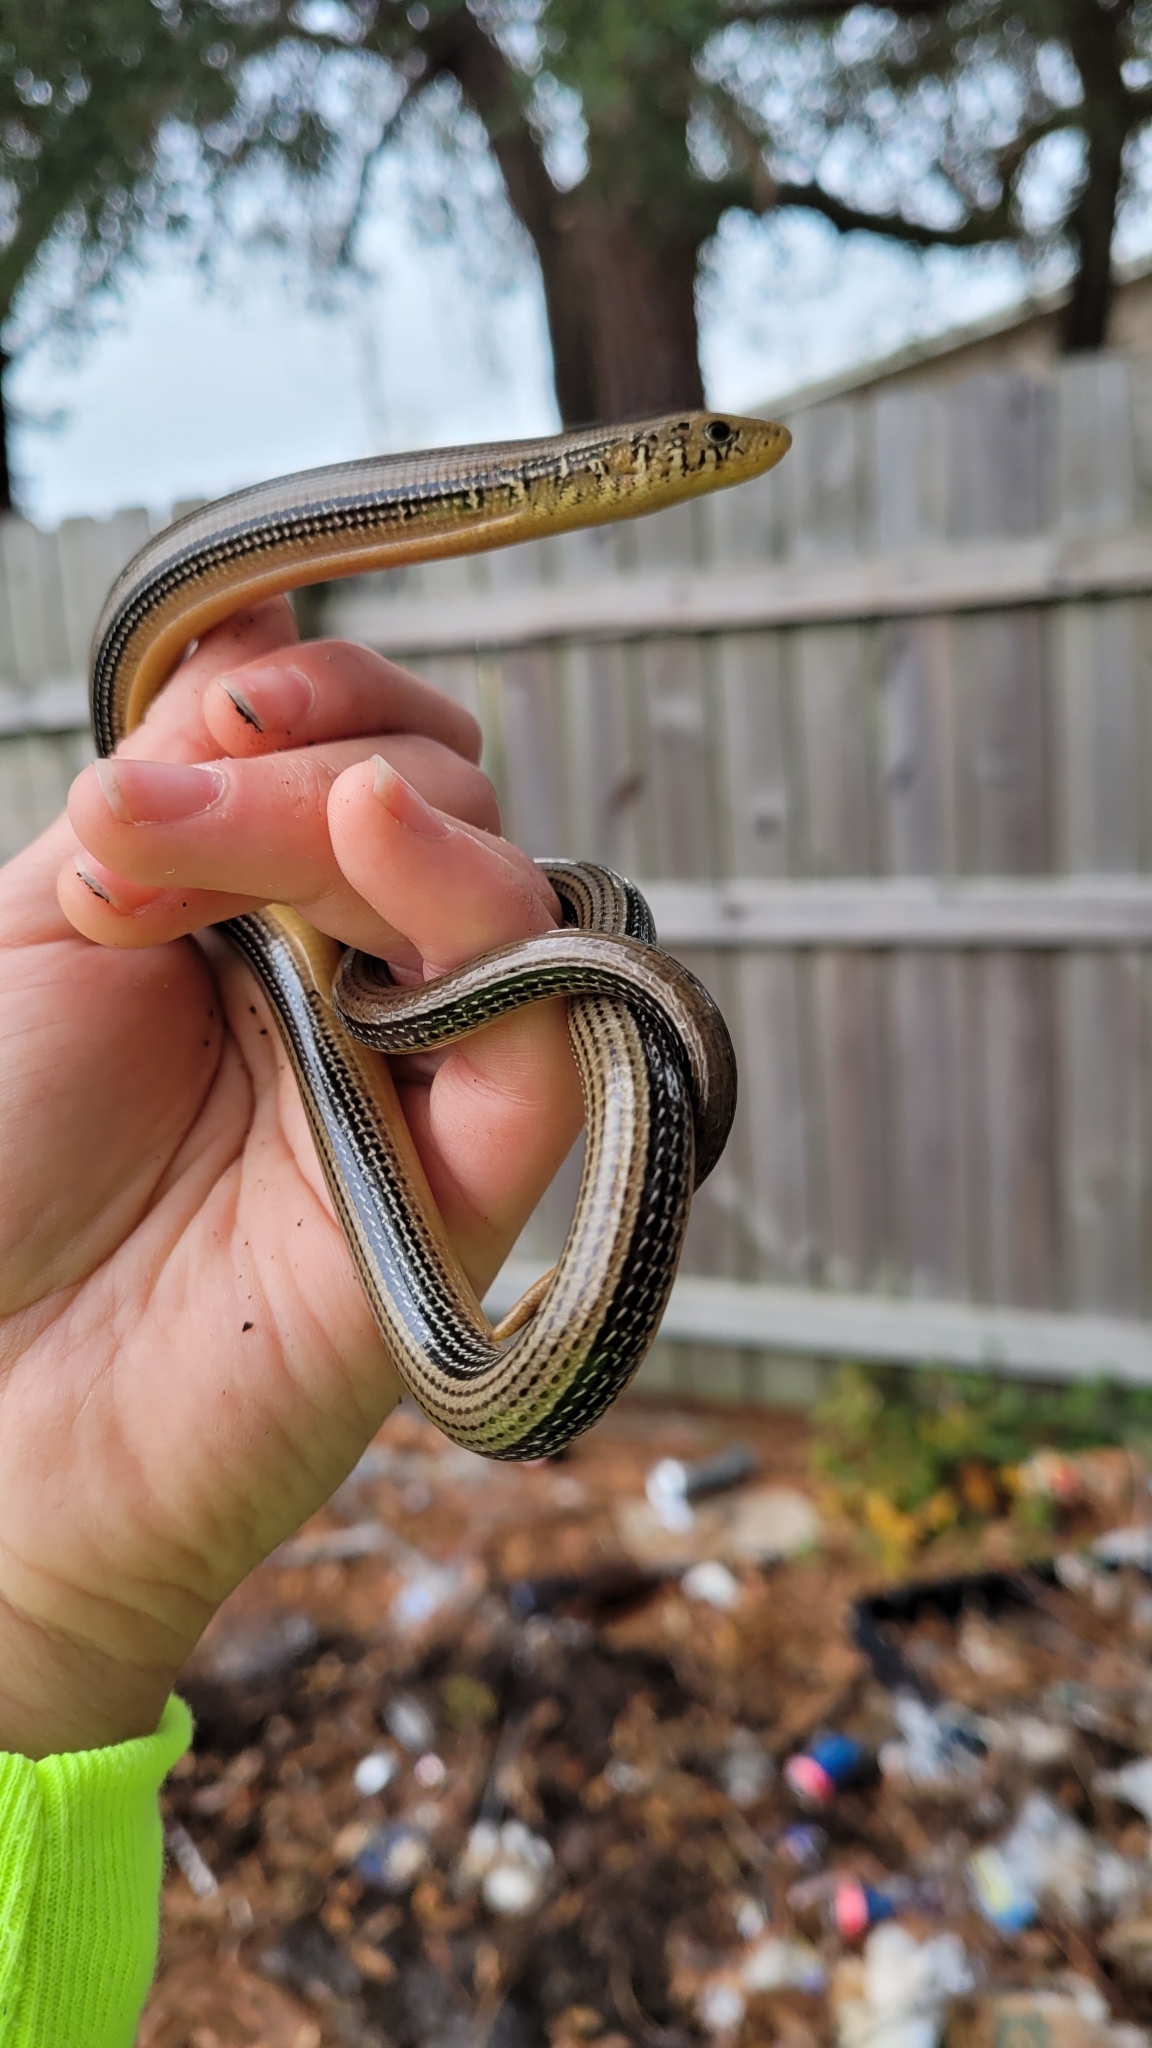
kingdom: Animalia
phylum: Chordata
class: Squamata
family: Anguidae
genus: Ophisaurus
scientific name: Ophisaurus ventralis
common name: Eastern glass lizard
